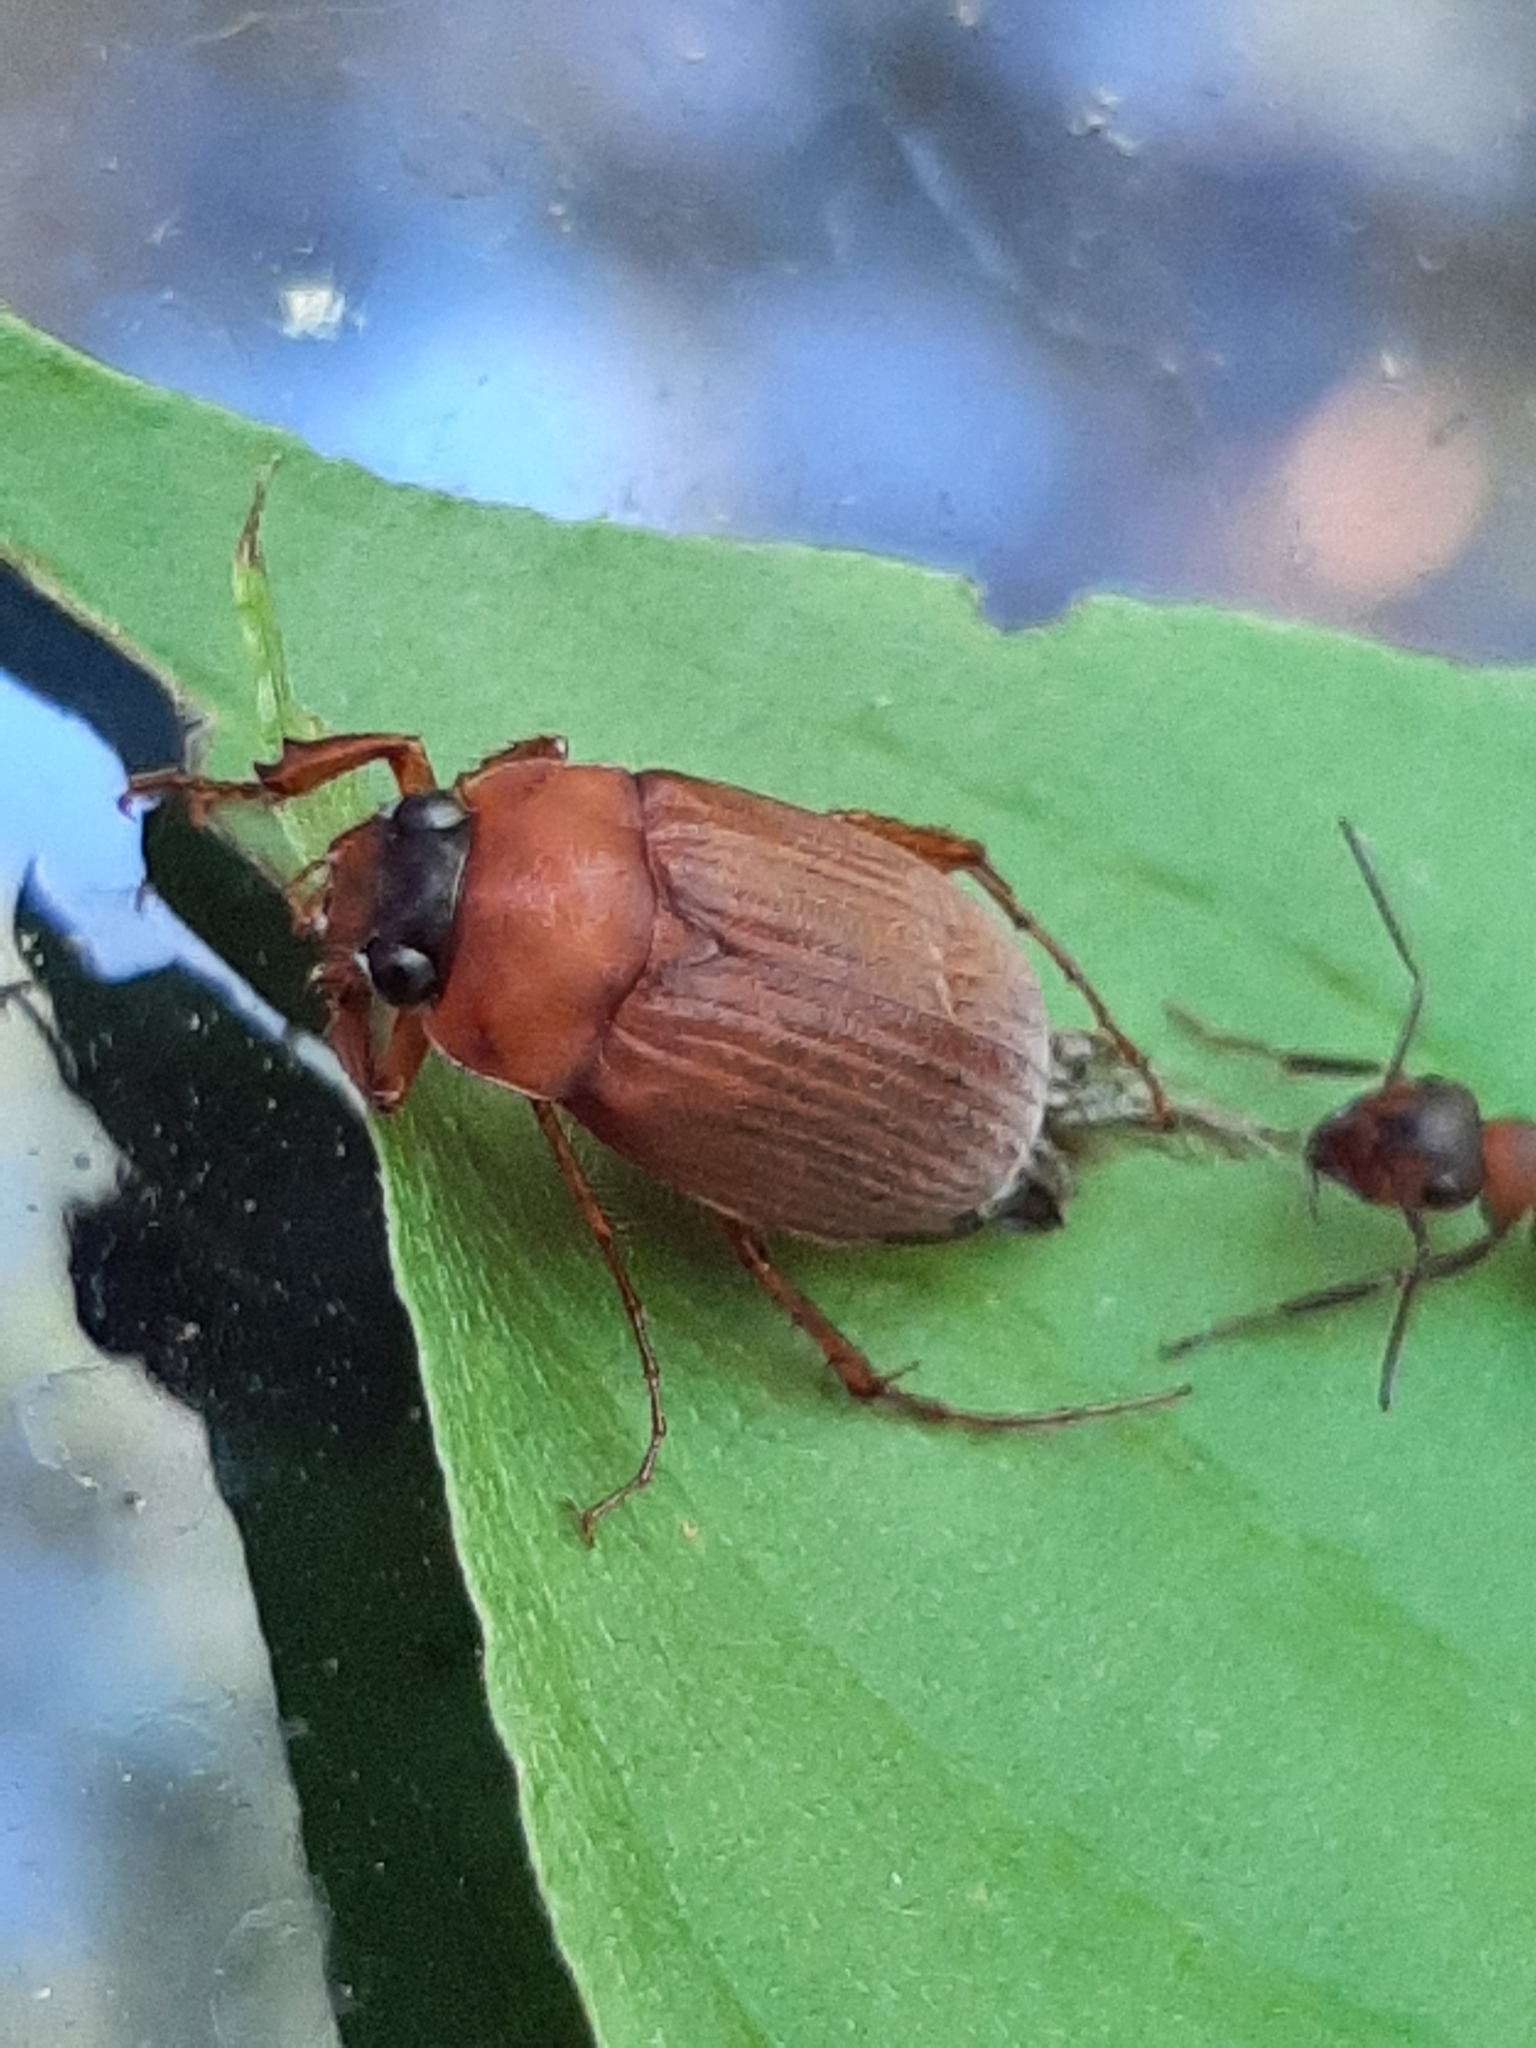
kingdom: Animalia
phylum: Arthropoda
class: Insecta
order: Coleoptera
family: Scarabaeidae
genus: Serica
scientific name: Serica brunnea
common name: Brown chafer
